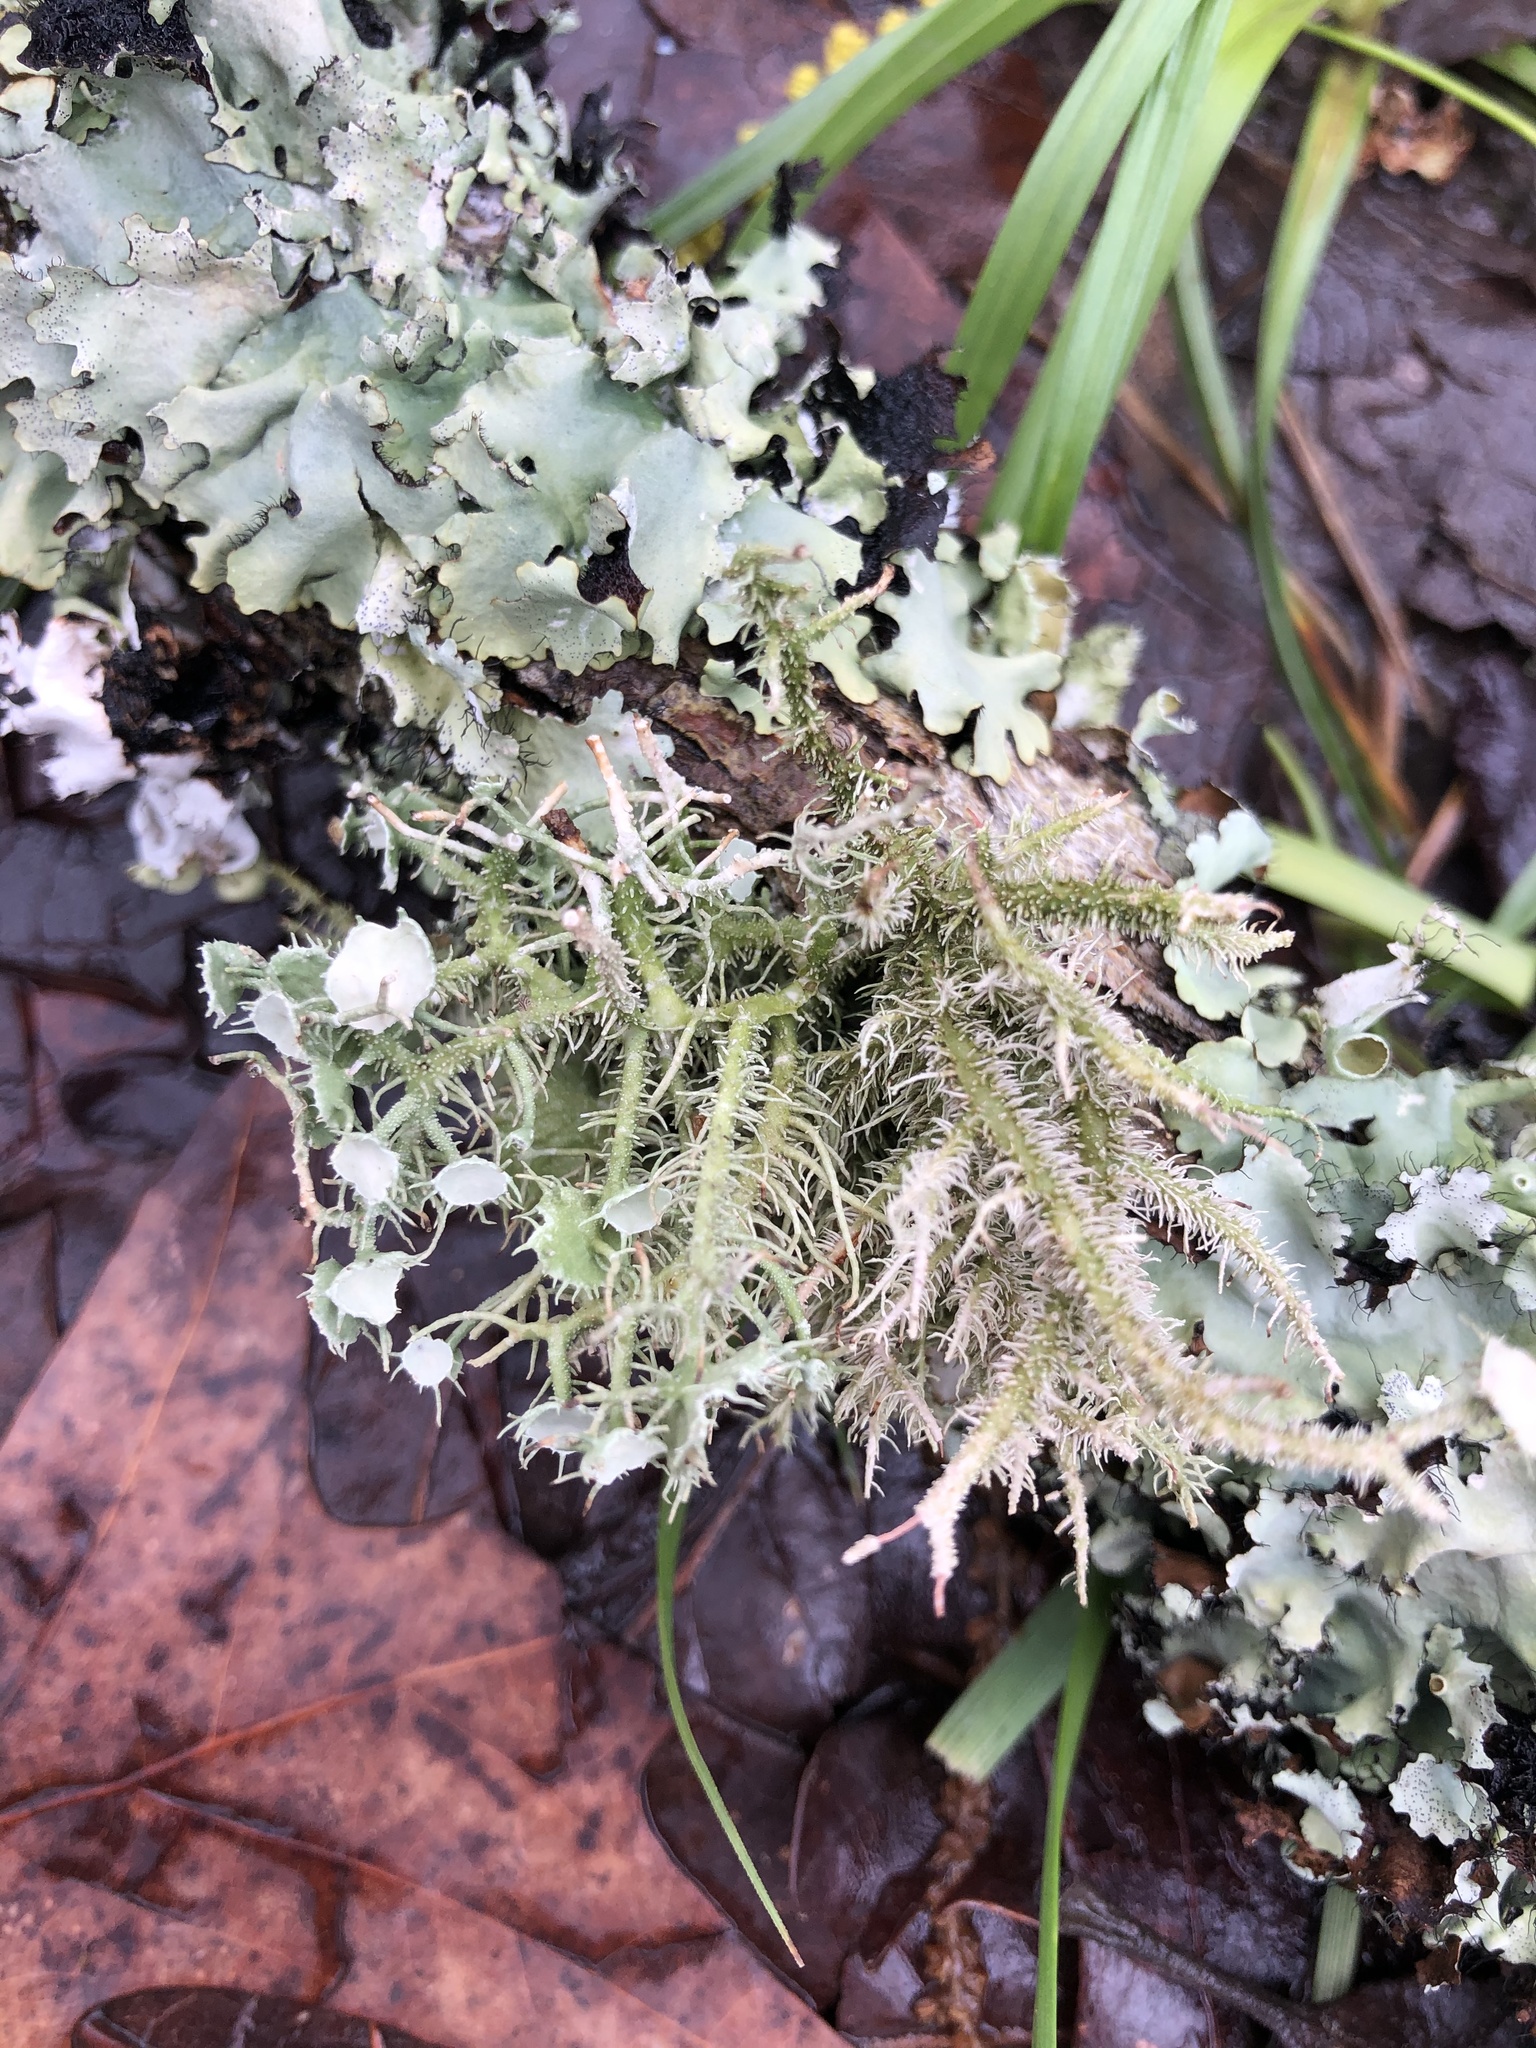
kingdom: Fungi
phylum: Ascomycota
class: Lecanoromycetes
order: Lecanorales
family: Parmeliaceae
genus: Usnea
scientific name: Usnea strigosa
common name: Bushy beard lichen
